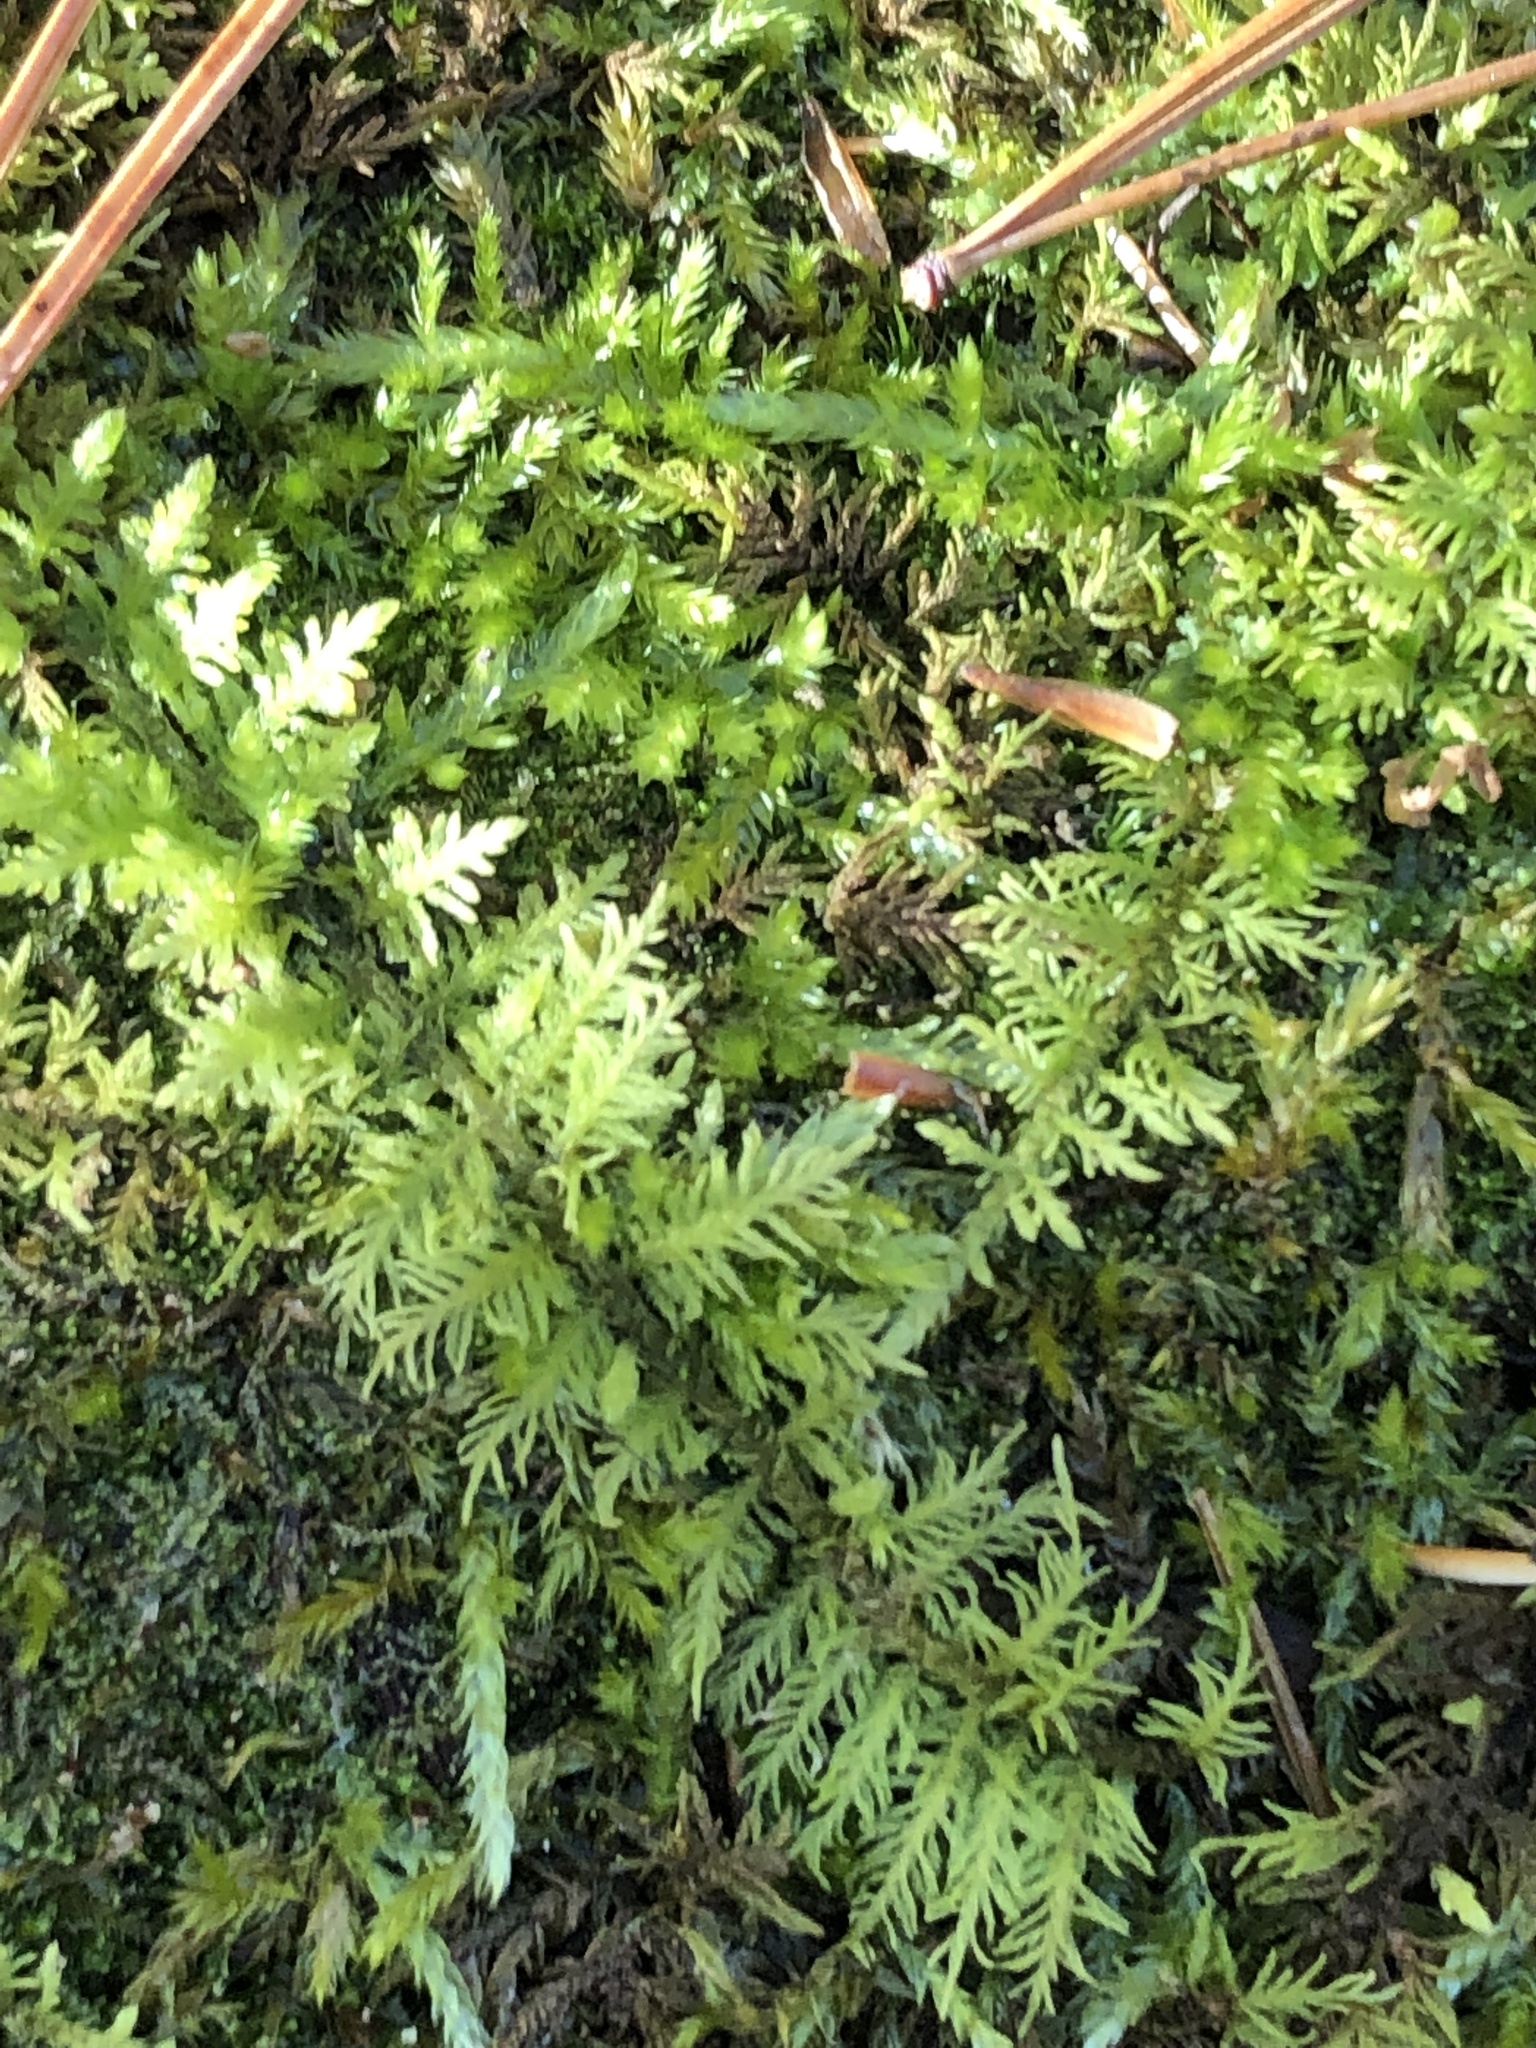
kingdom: Plantae
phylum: Bryophyta
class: Bryopsida
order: Hypnales
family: Thuidiaceae
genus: Thuidium
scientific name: Thuidium delicatulum
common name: Delicate fern moss
